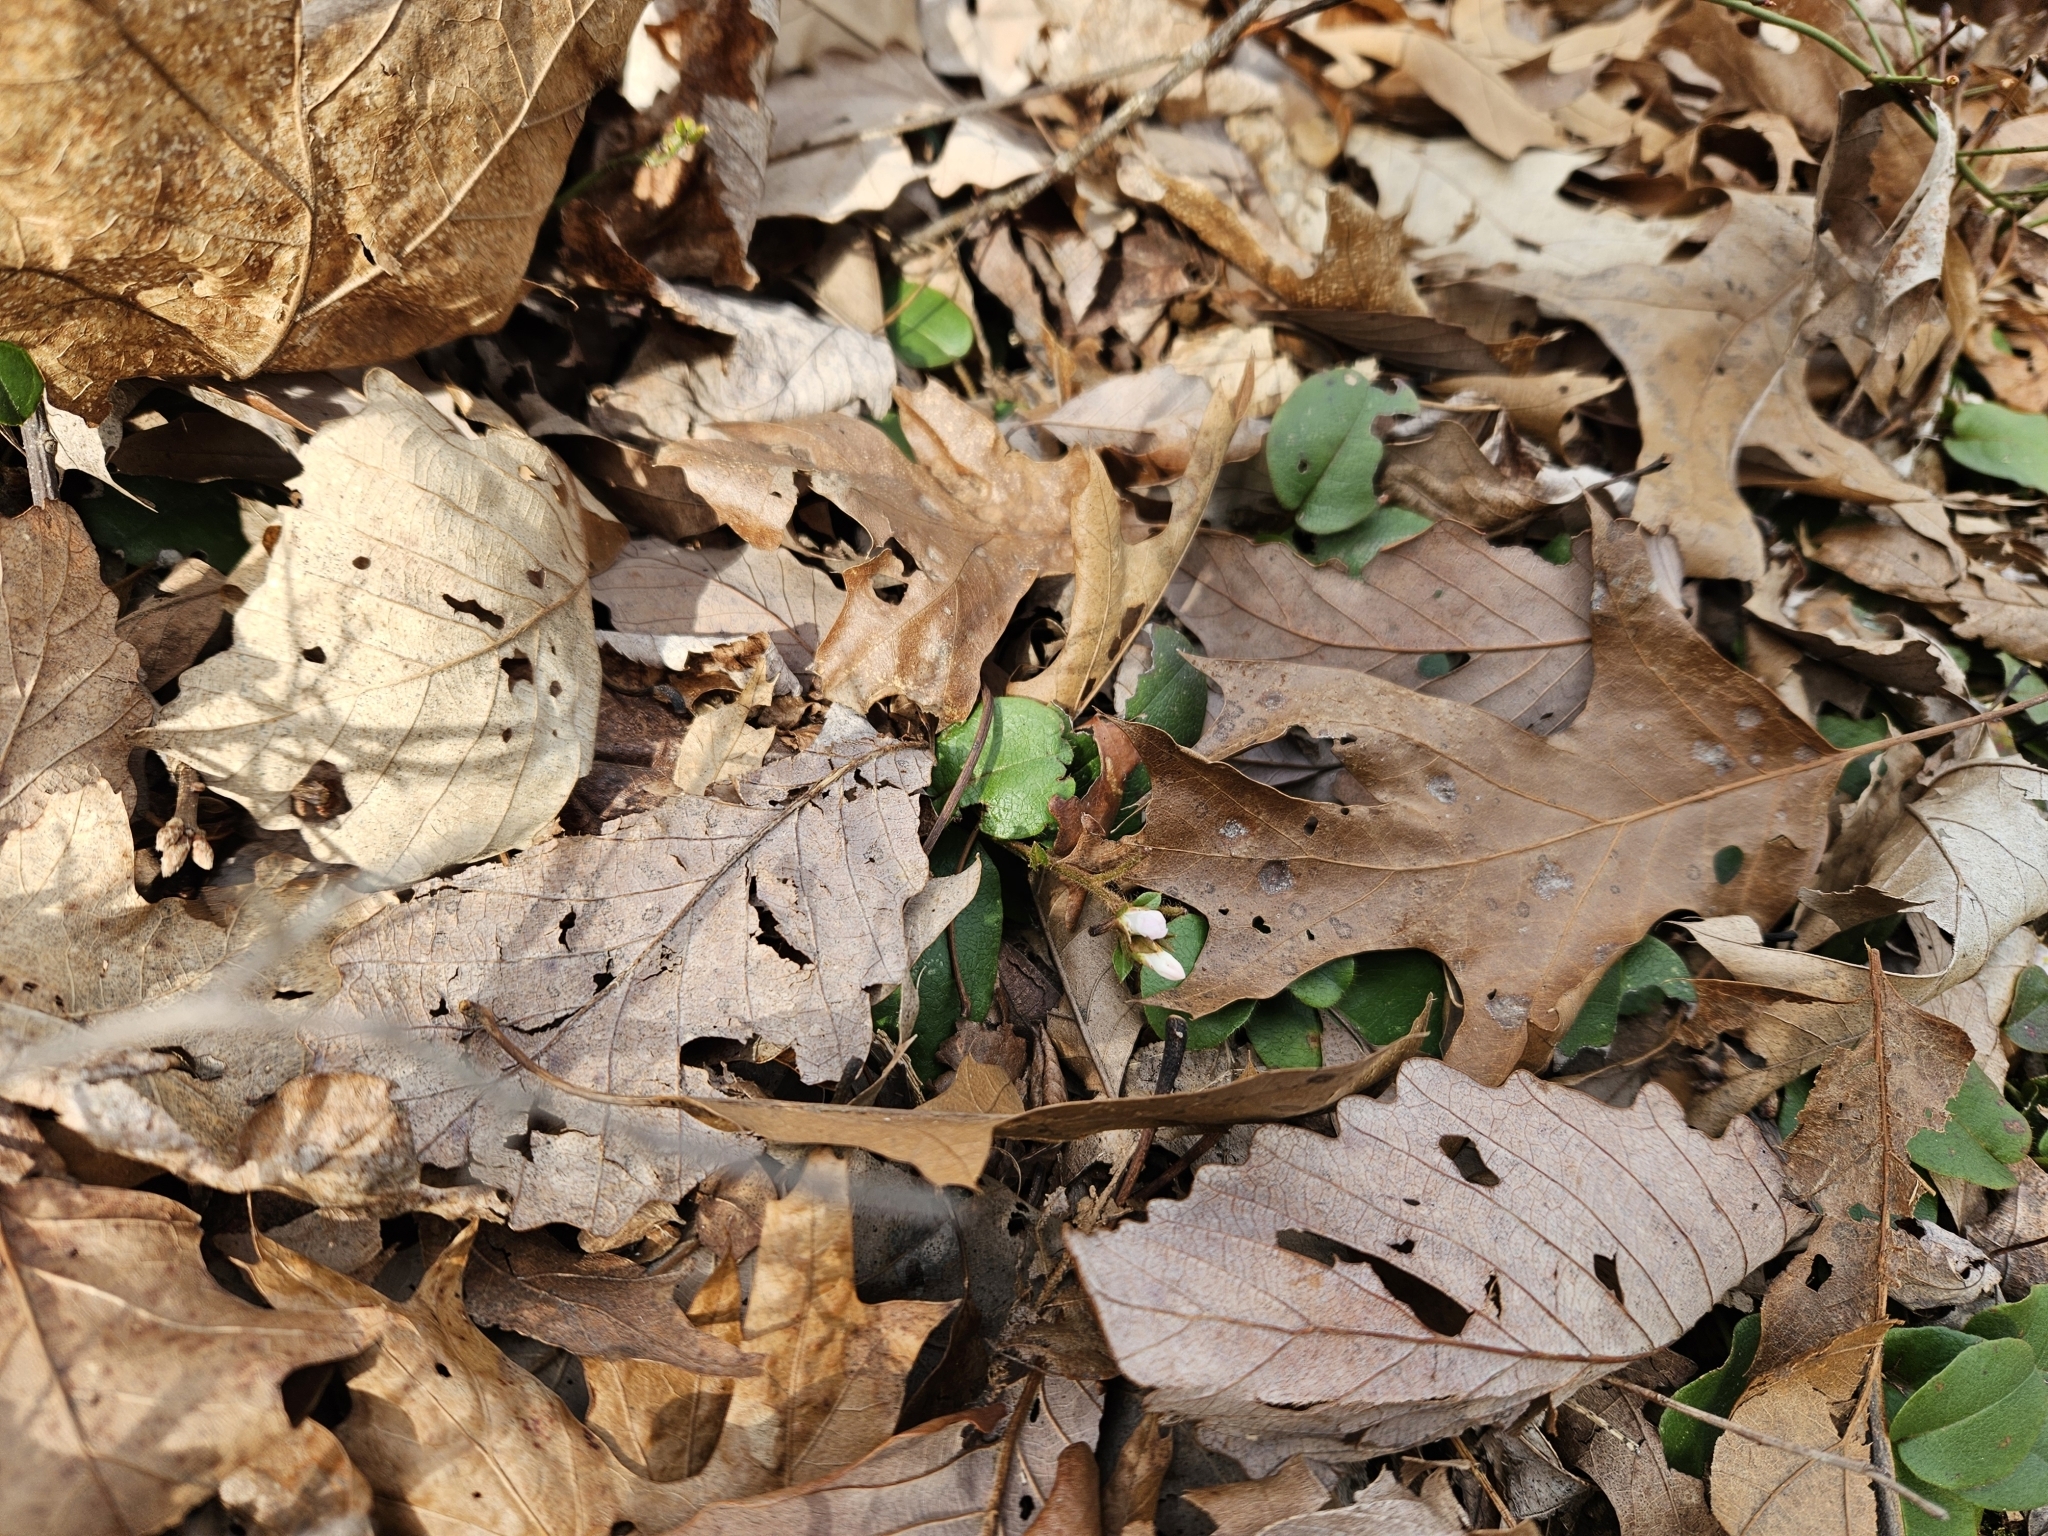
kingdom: Plantae
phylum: Tracheophyta
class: Magnoliopsida
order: Ericales
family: Ericaceae
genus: Epigaea
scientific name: Epigaea repens
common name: Gravelroot
